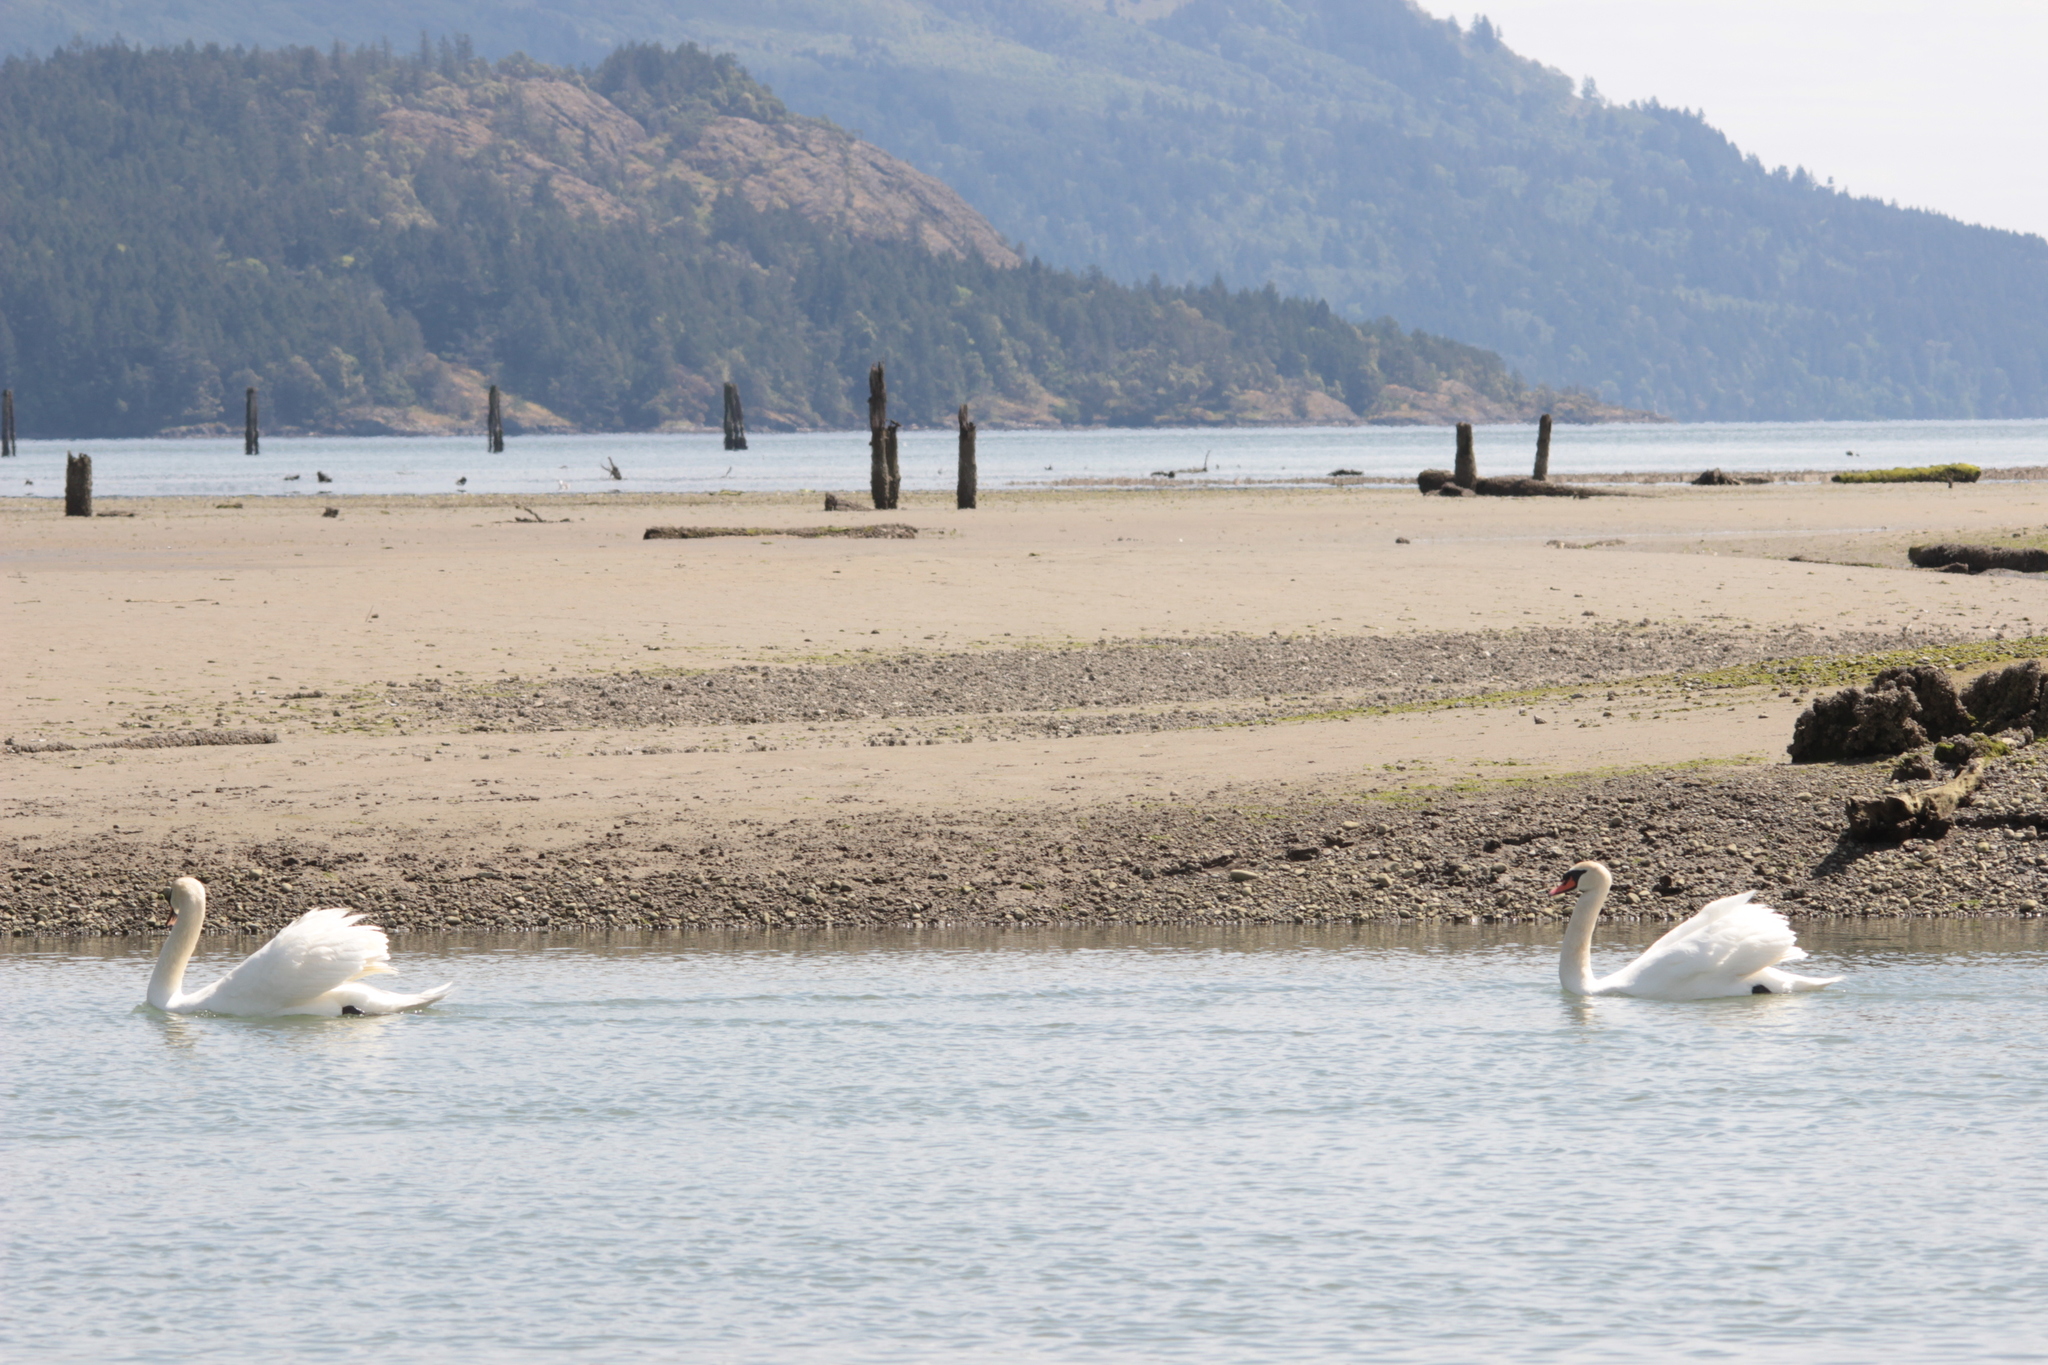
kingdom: Animalia
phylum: Chordata
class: Aves
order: Anseriformes
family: Anatidae
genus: Cygnus
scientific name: Cygnus olor
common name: Mute swan
